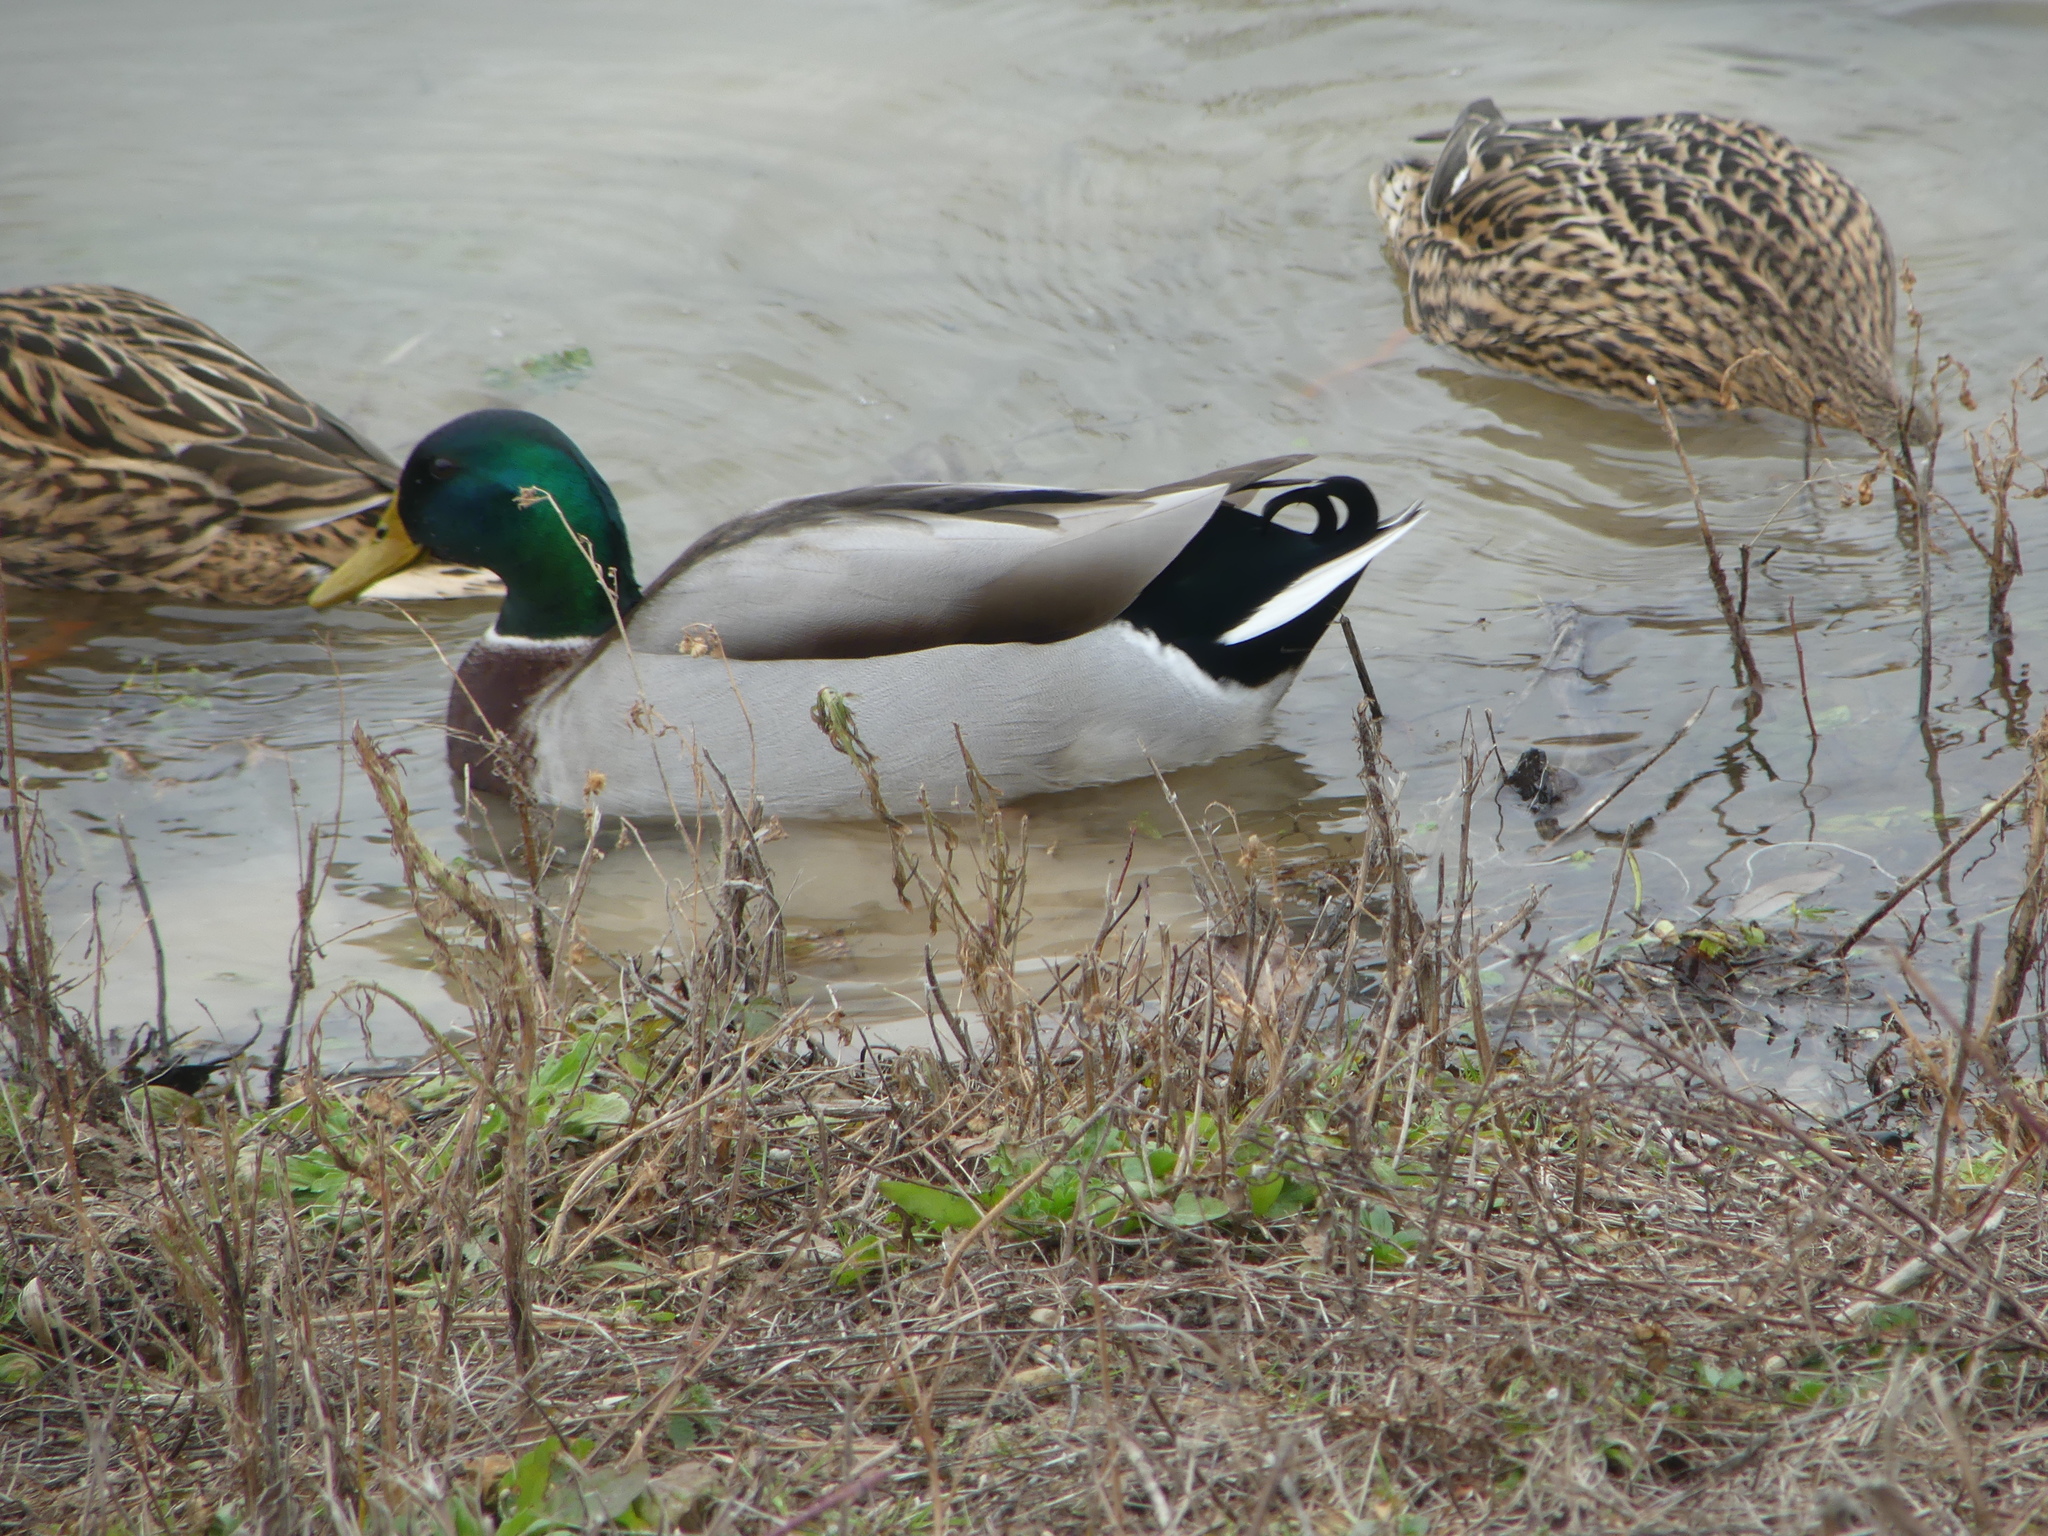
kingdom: Animalia
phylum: Chordata
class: Aves
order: Anseriformes
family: Anatidae
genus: Anas
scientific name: Anas platyrhynchos
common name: Mallard
